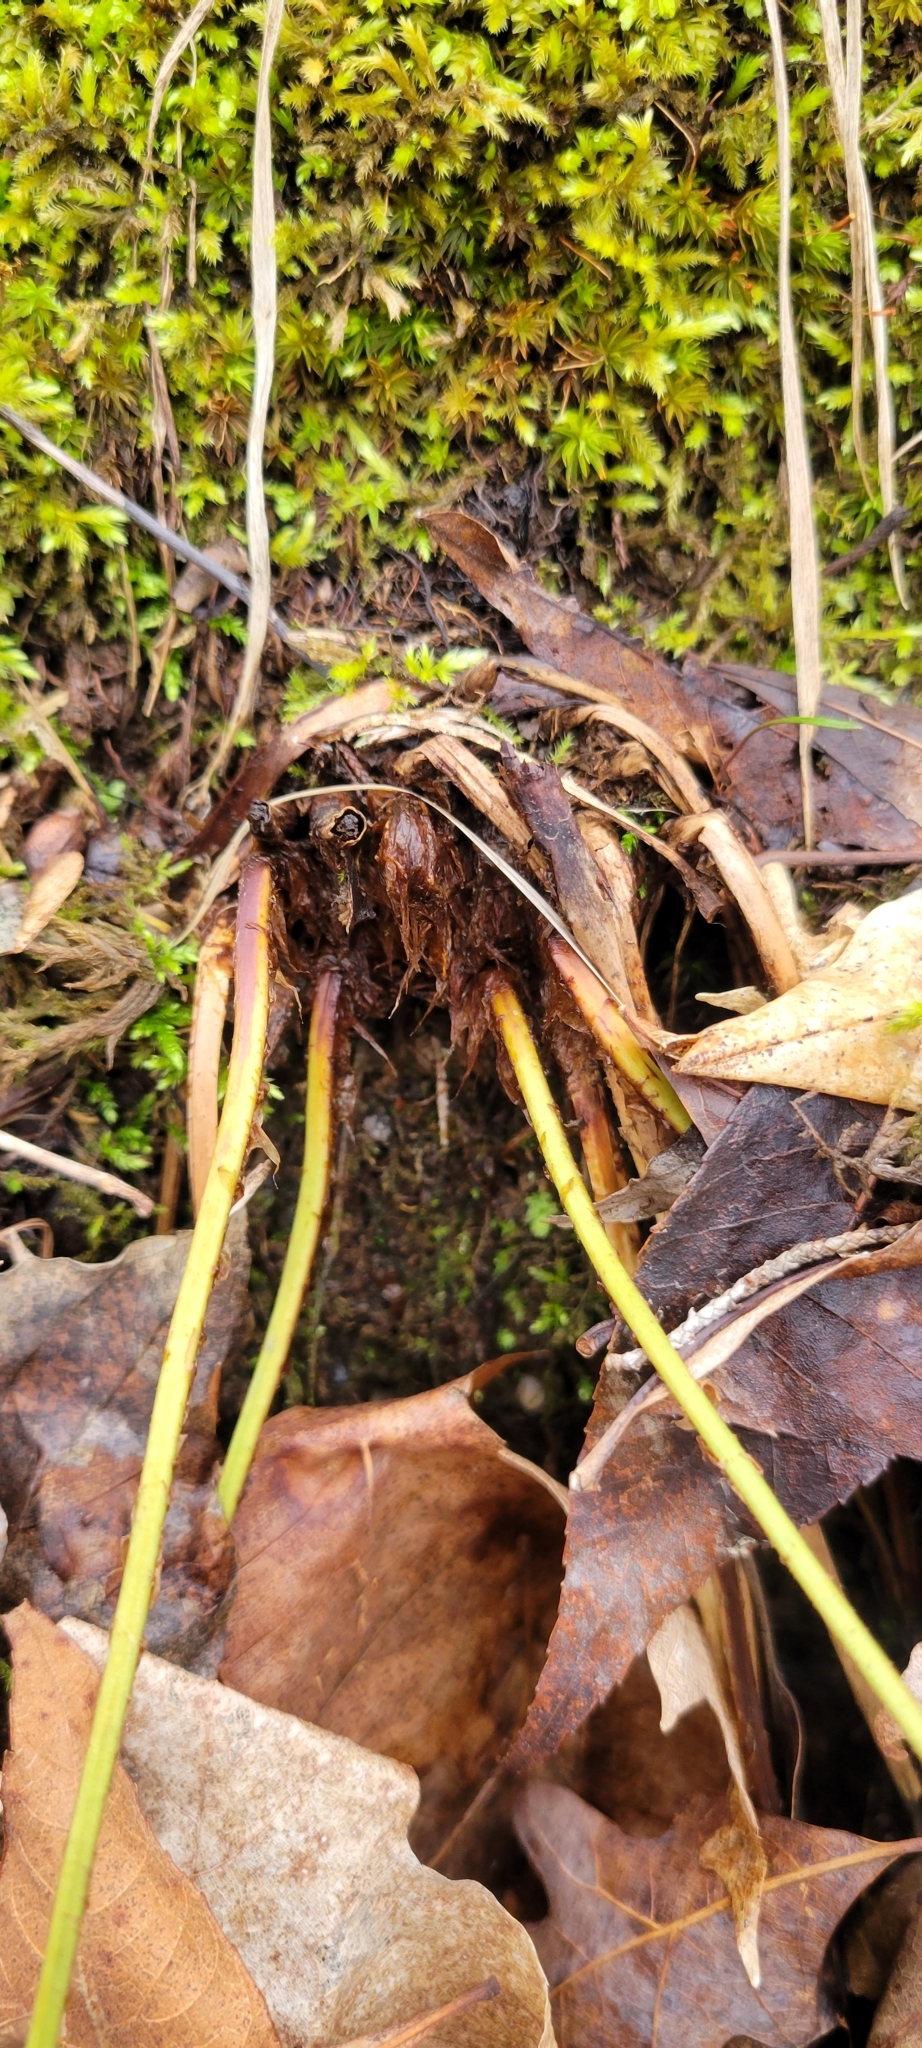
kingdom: Plantae
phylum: Tracheophyta
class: Polypodiopsida
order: Polypodiales
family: Dryopteridaceae
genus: Dryopteris
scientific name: Dryopteris marginalis
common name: Marginal wood fern
